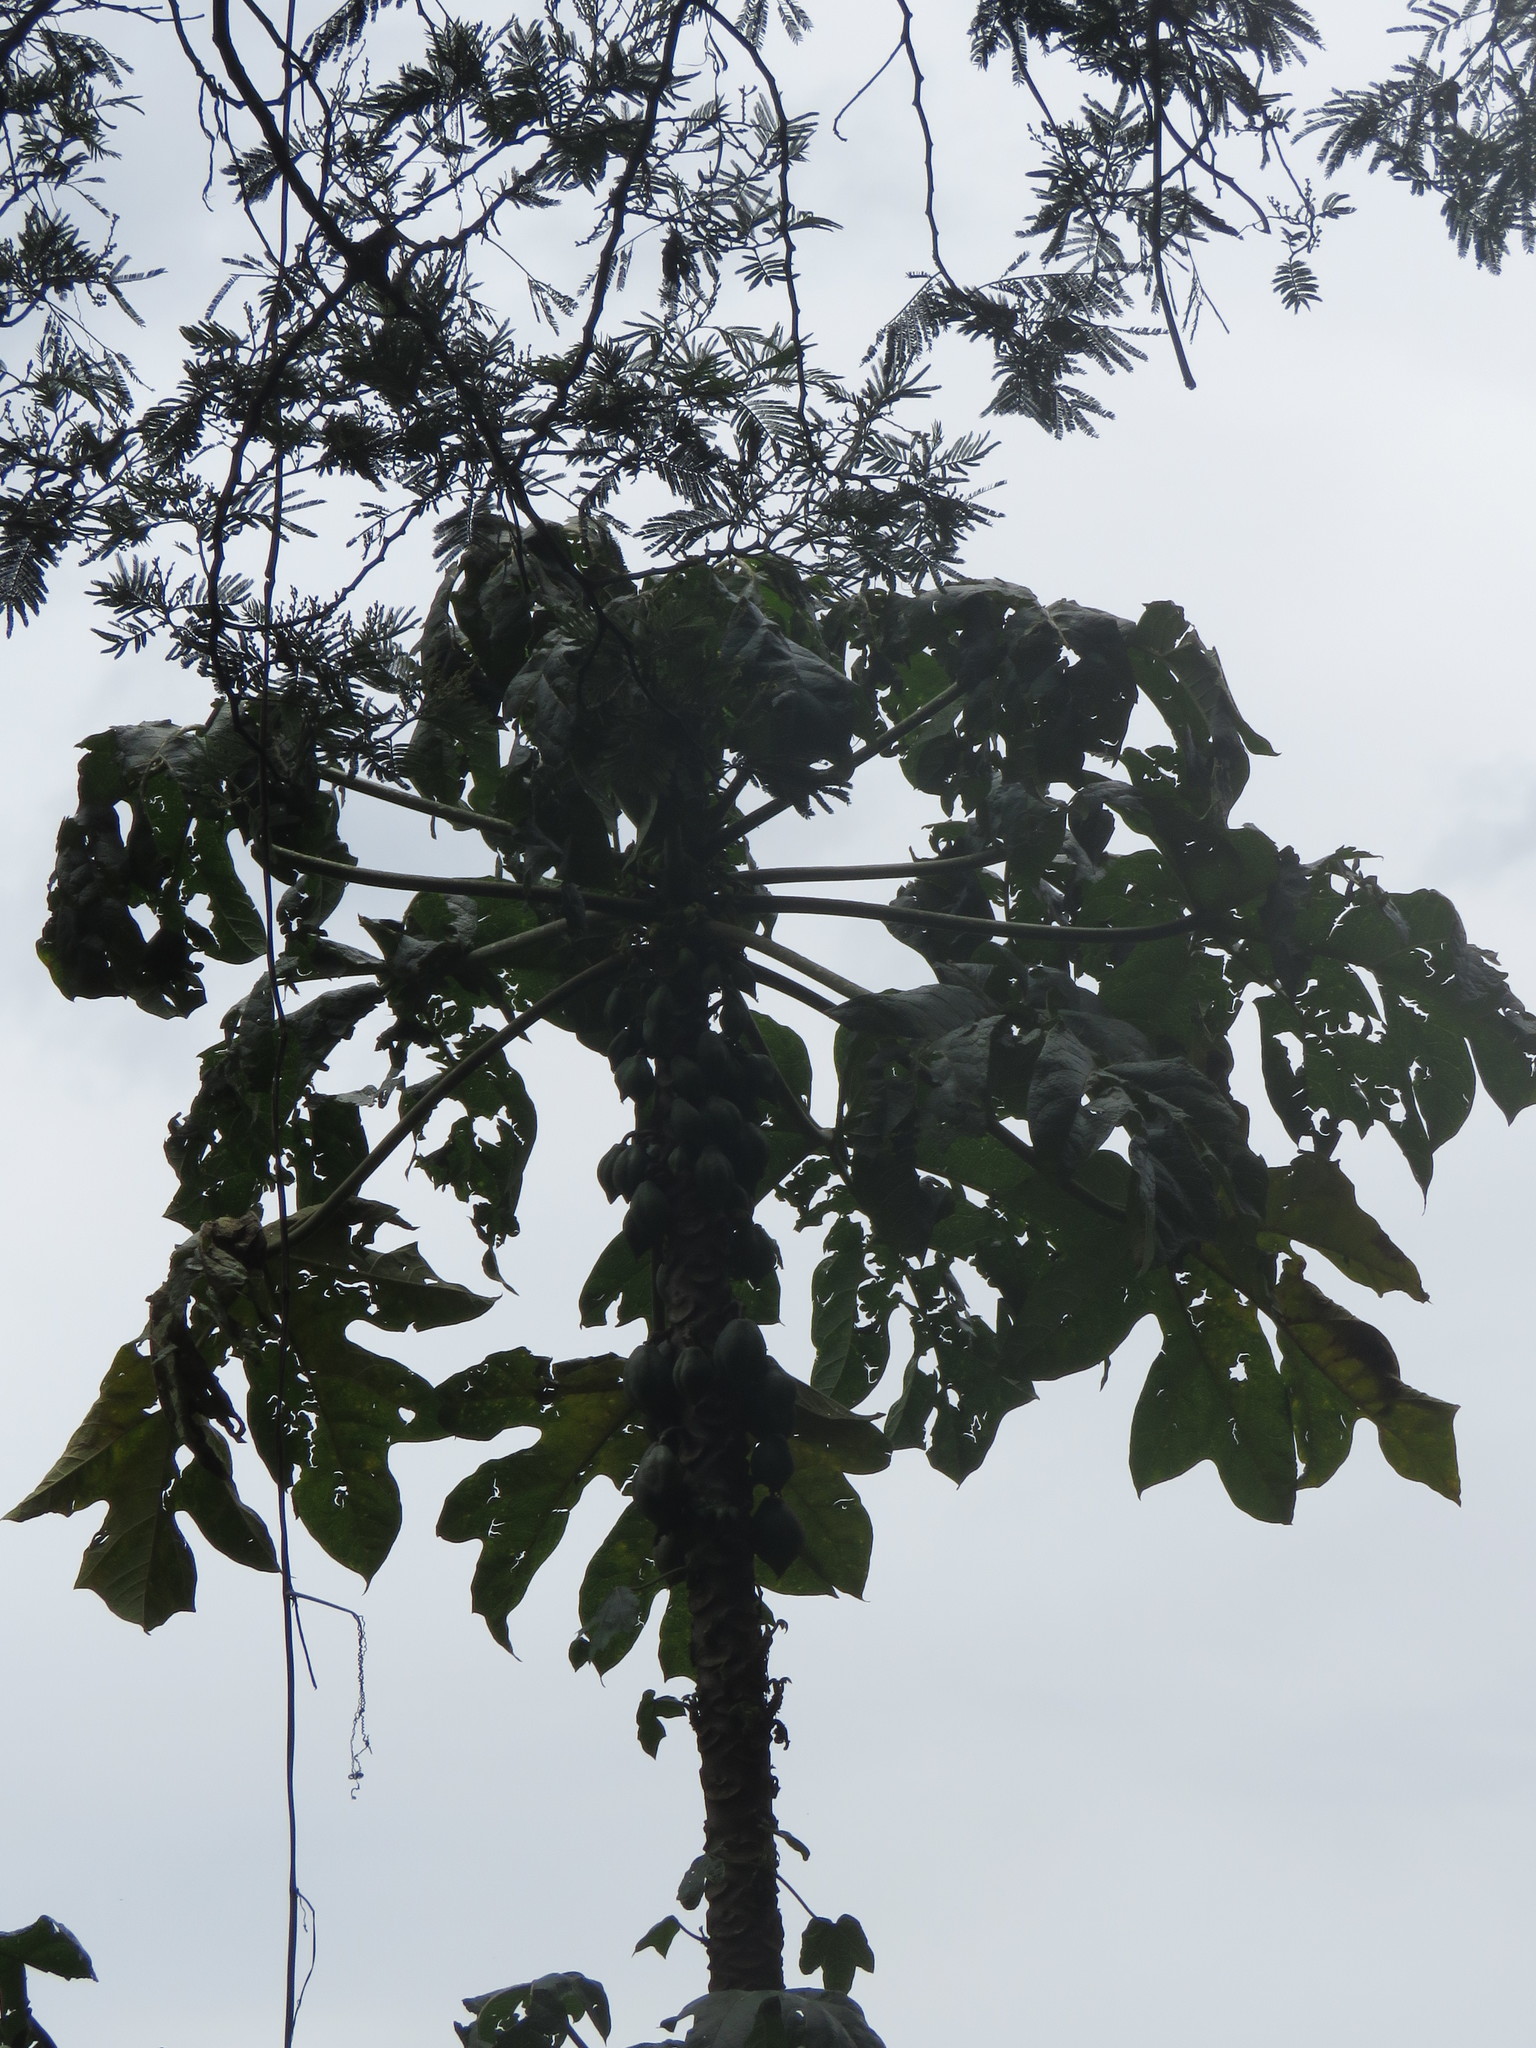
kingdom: Plantae
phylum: Tracheophyta
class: Magnoliopsida
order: Brassicales
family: Caricaceae
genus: Vasconcellea
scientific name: Vasconcellea pubescens
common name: Mountain papaya
